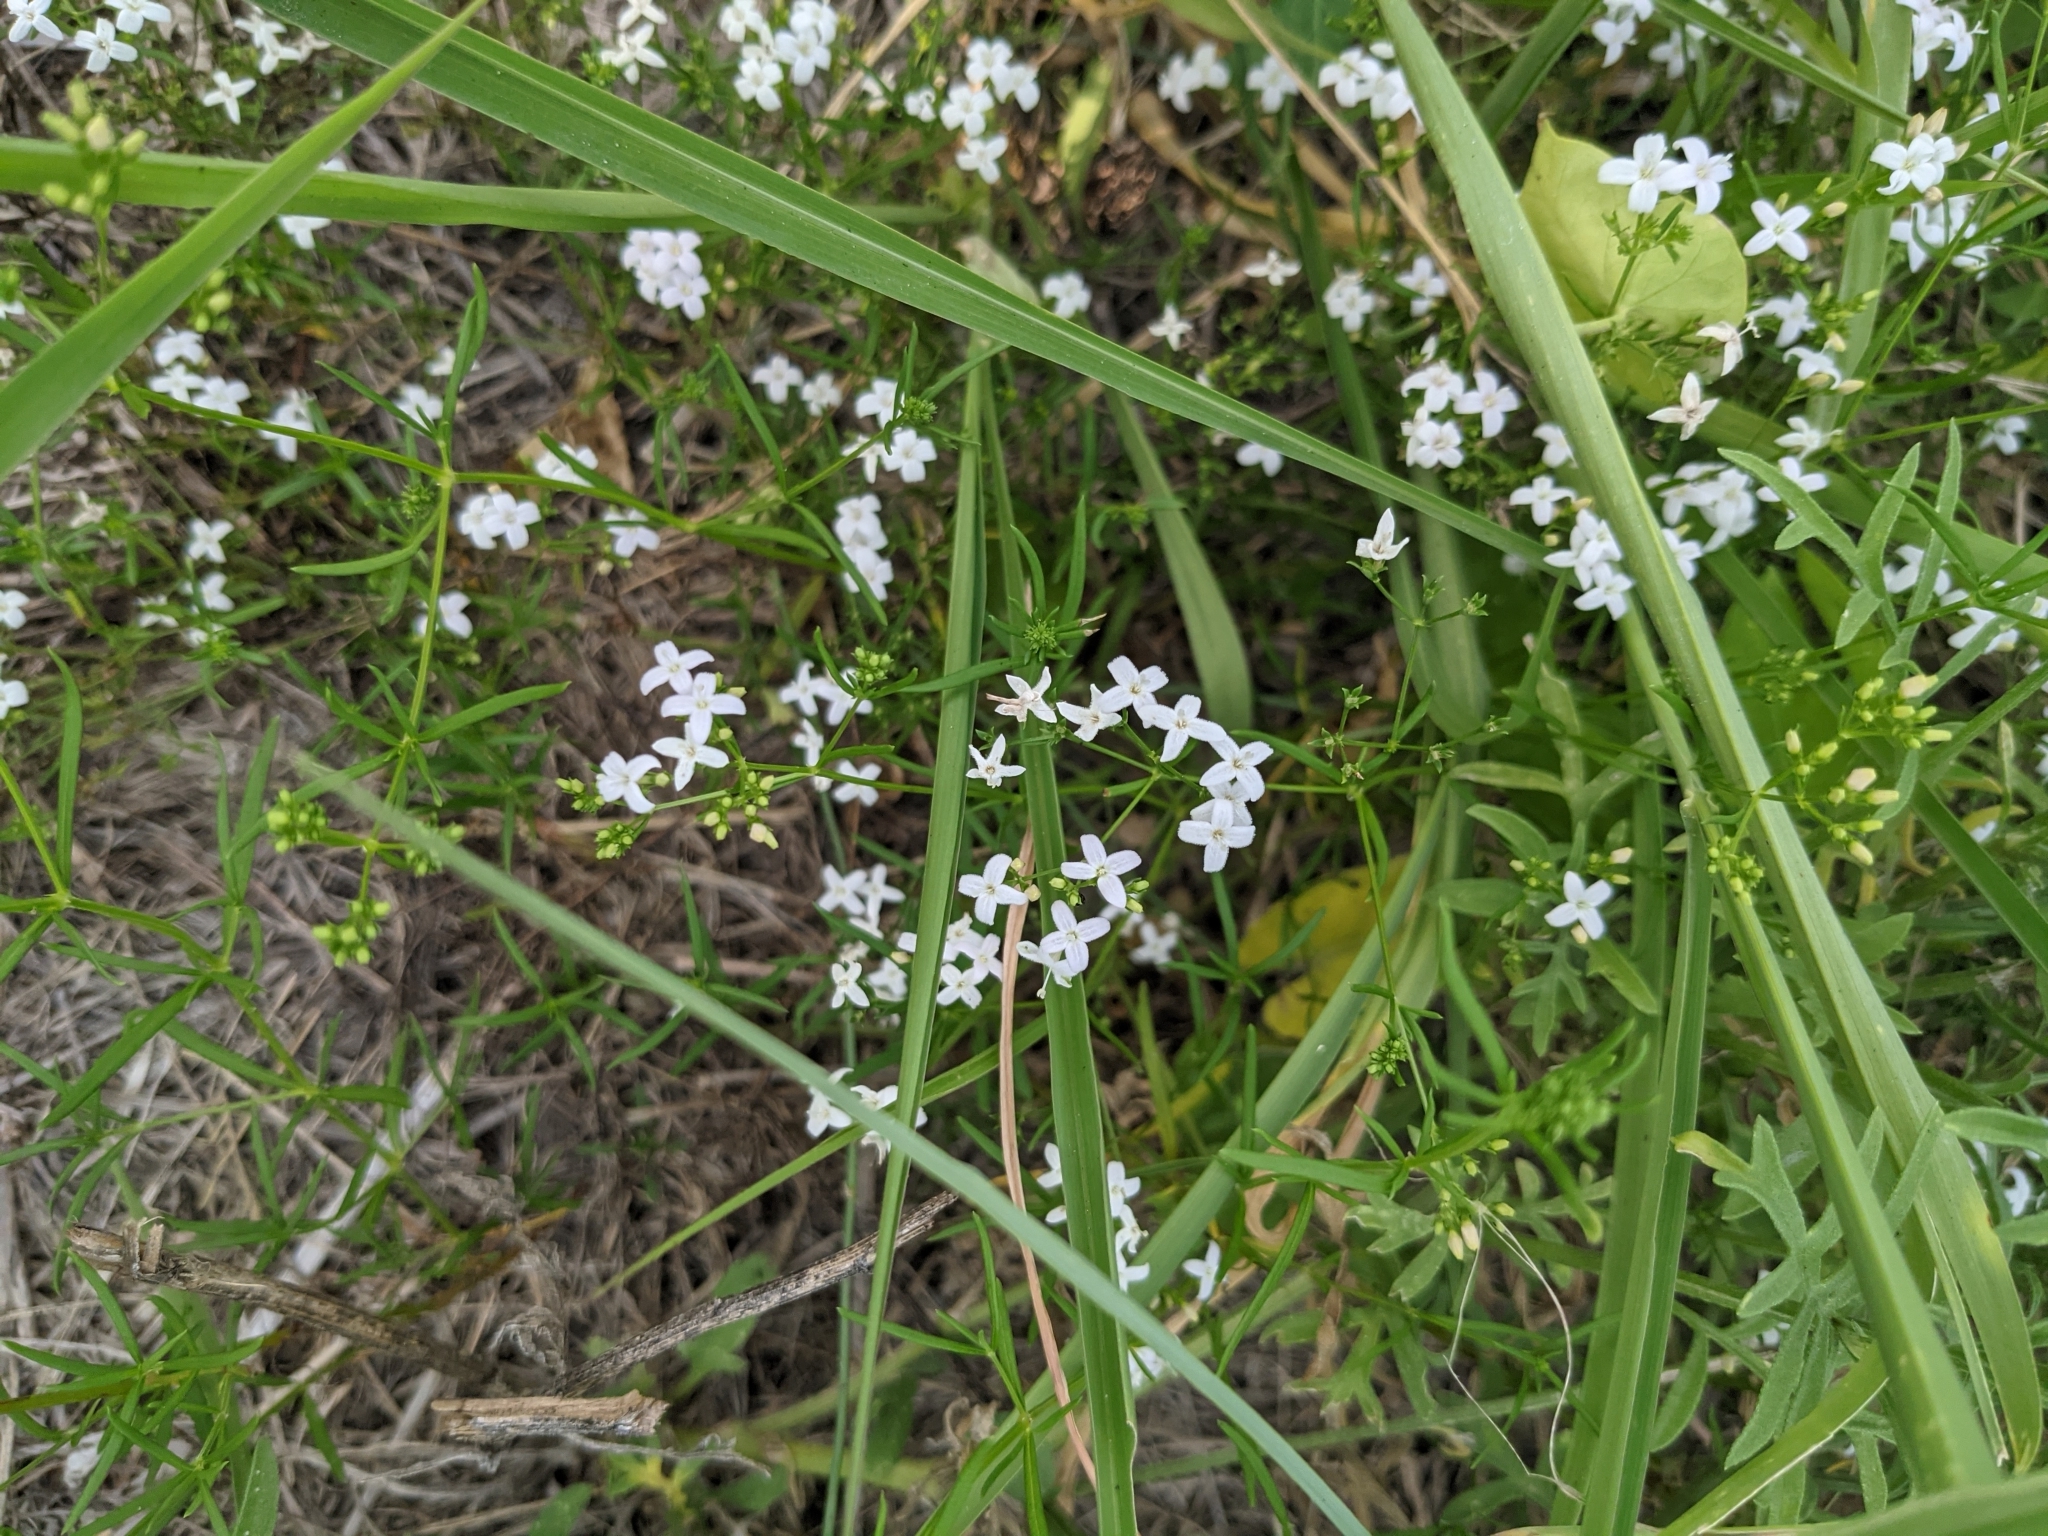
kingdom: Plantae
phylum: Tracheophyta
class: Magnoliopsida
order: Gentianales
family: Rubiaceae
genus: Stenaria
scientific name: Stenaria nigricans
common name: Diamondflowers
